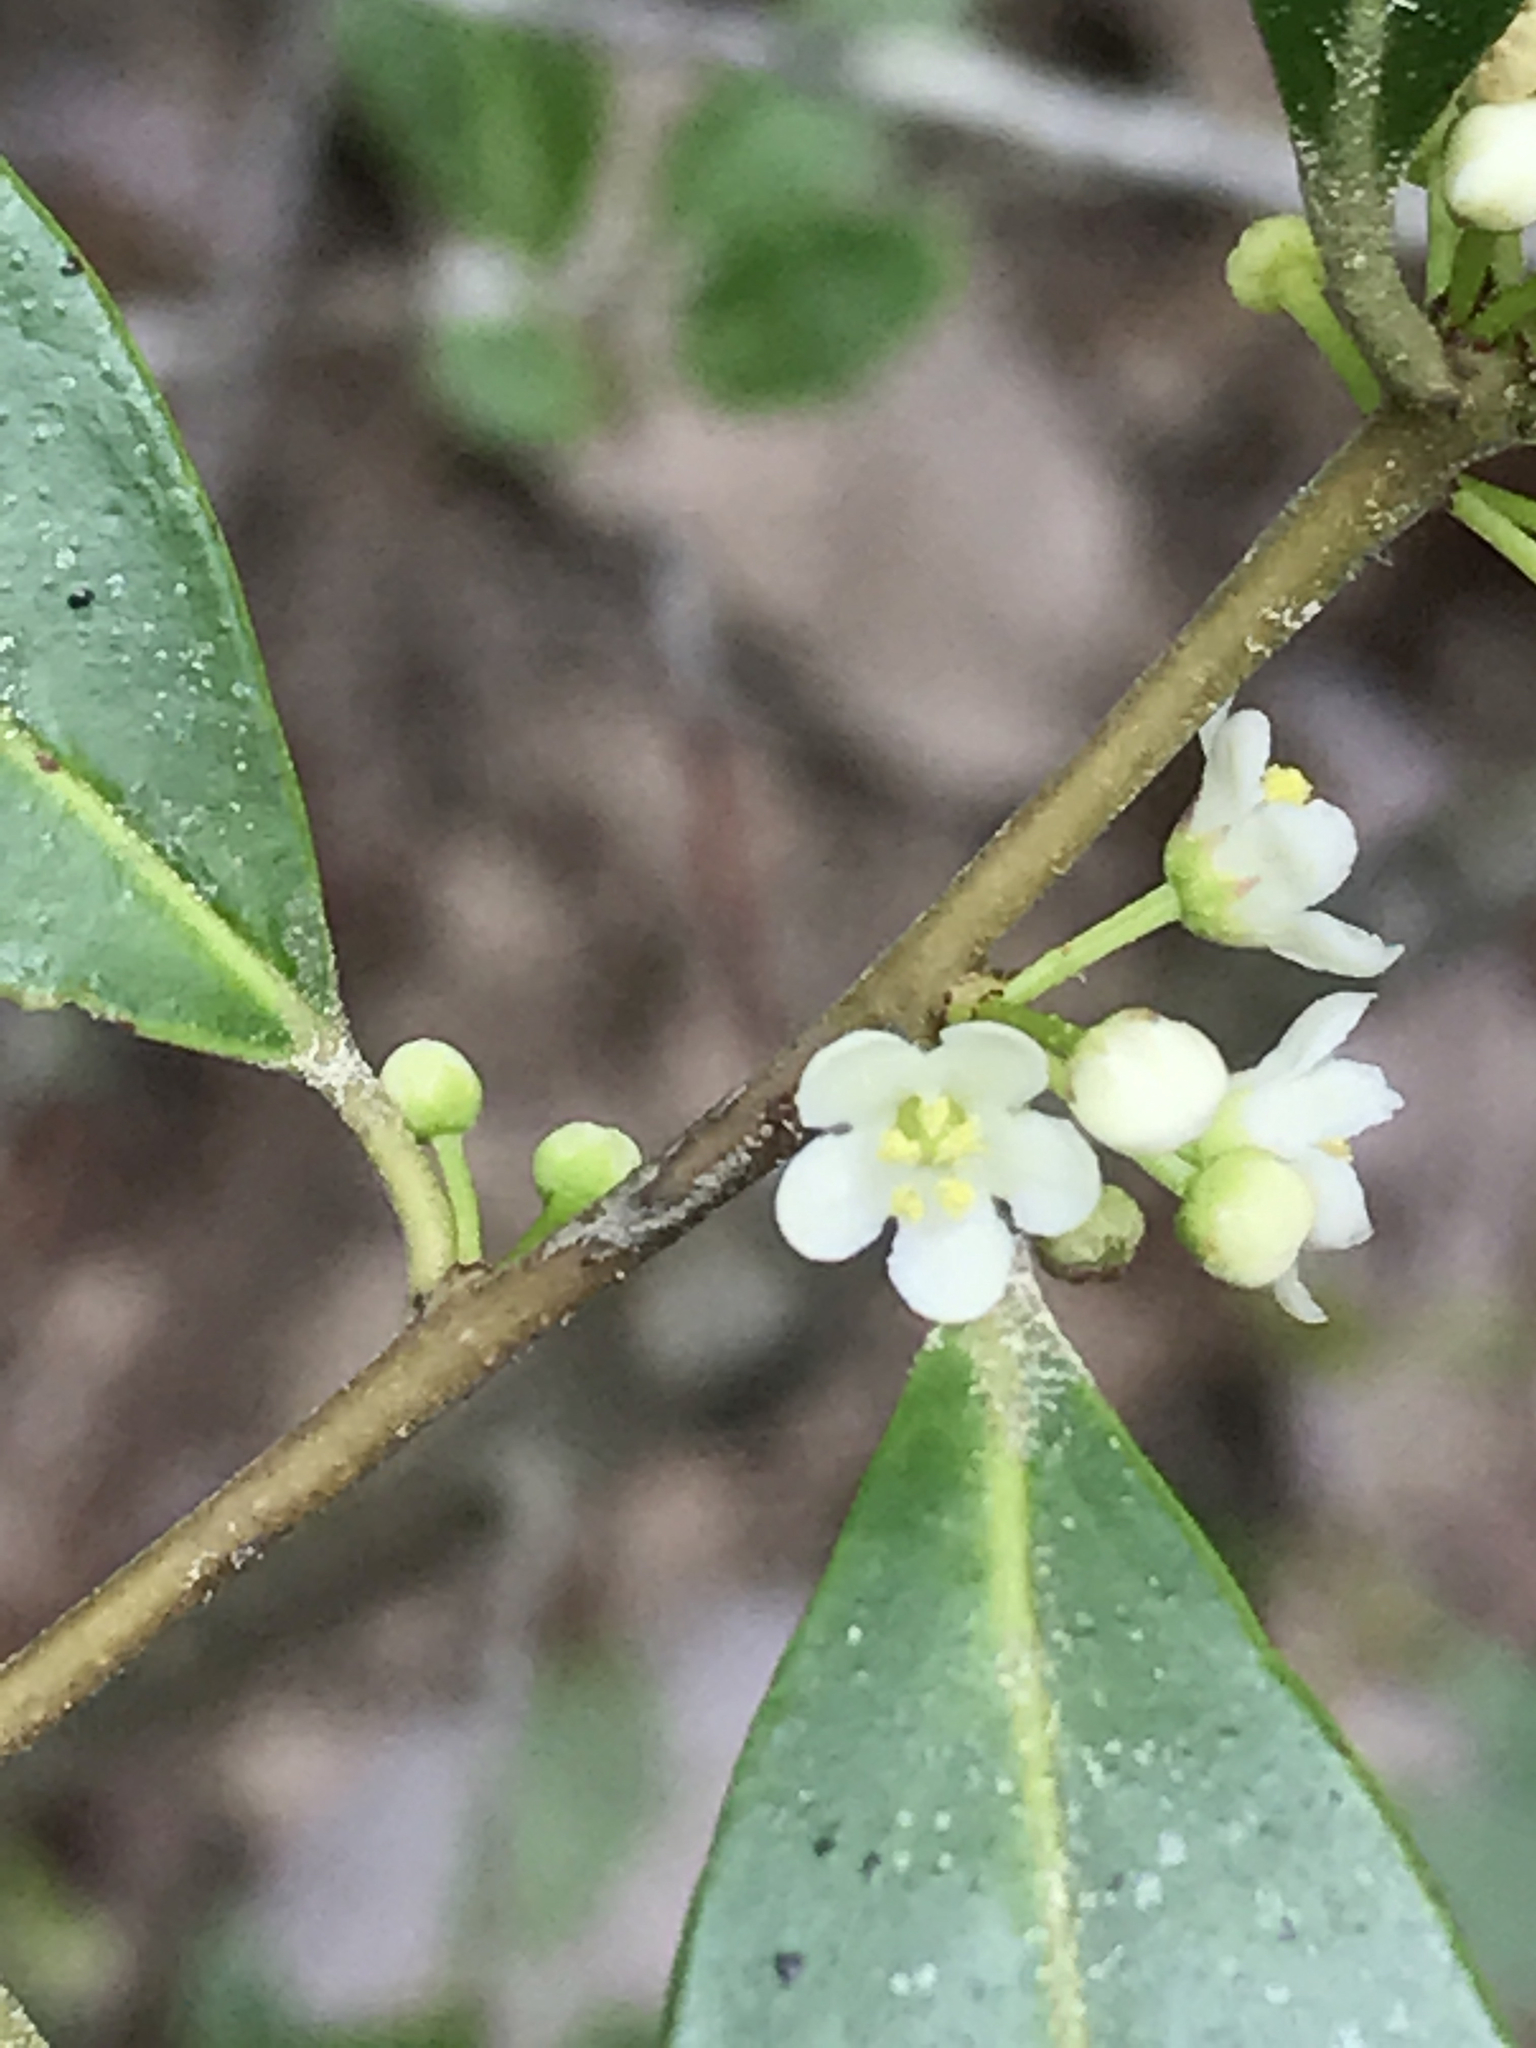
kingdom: Plantae
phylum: Tracheophyta
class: Magnoliopsida
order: Aquifoliales
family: Aquifoliaceae
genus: Ilex
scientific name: Ilex coriacea
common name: Sweet gallberry
